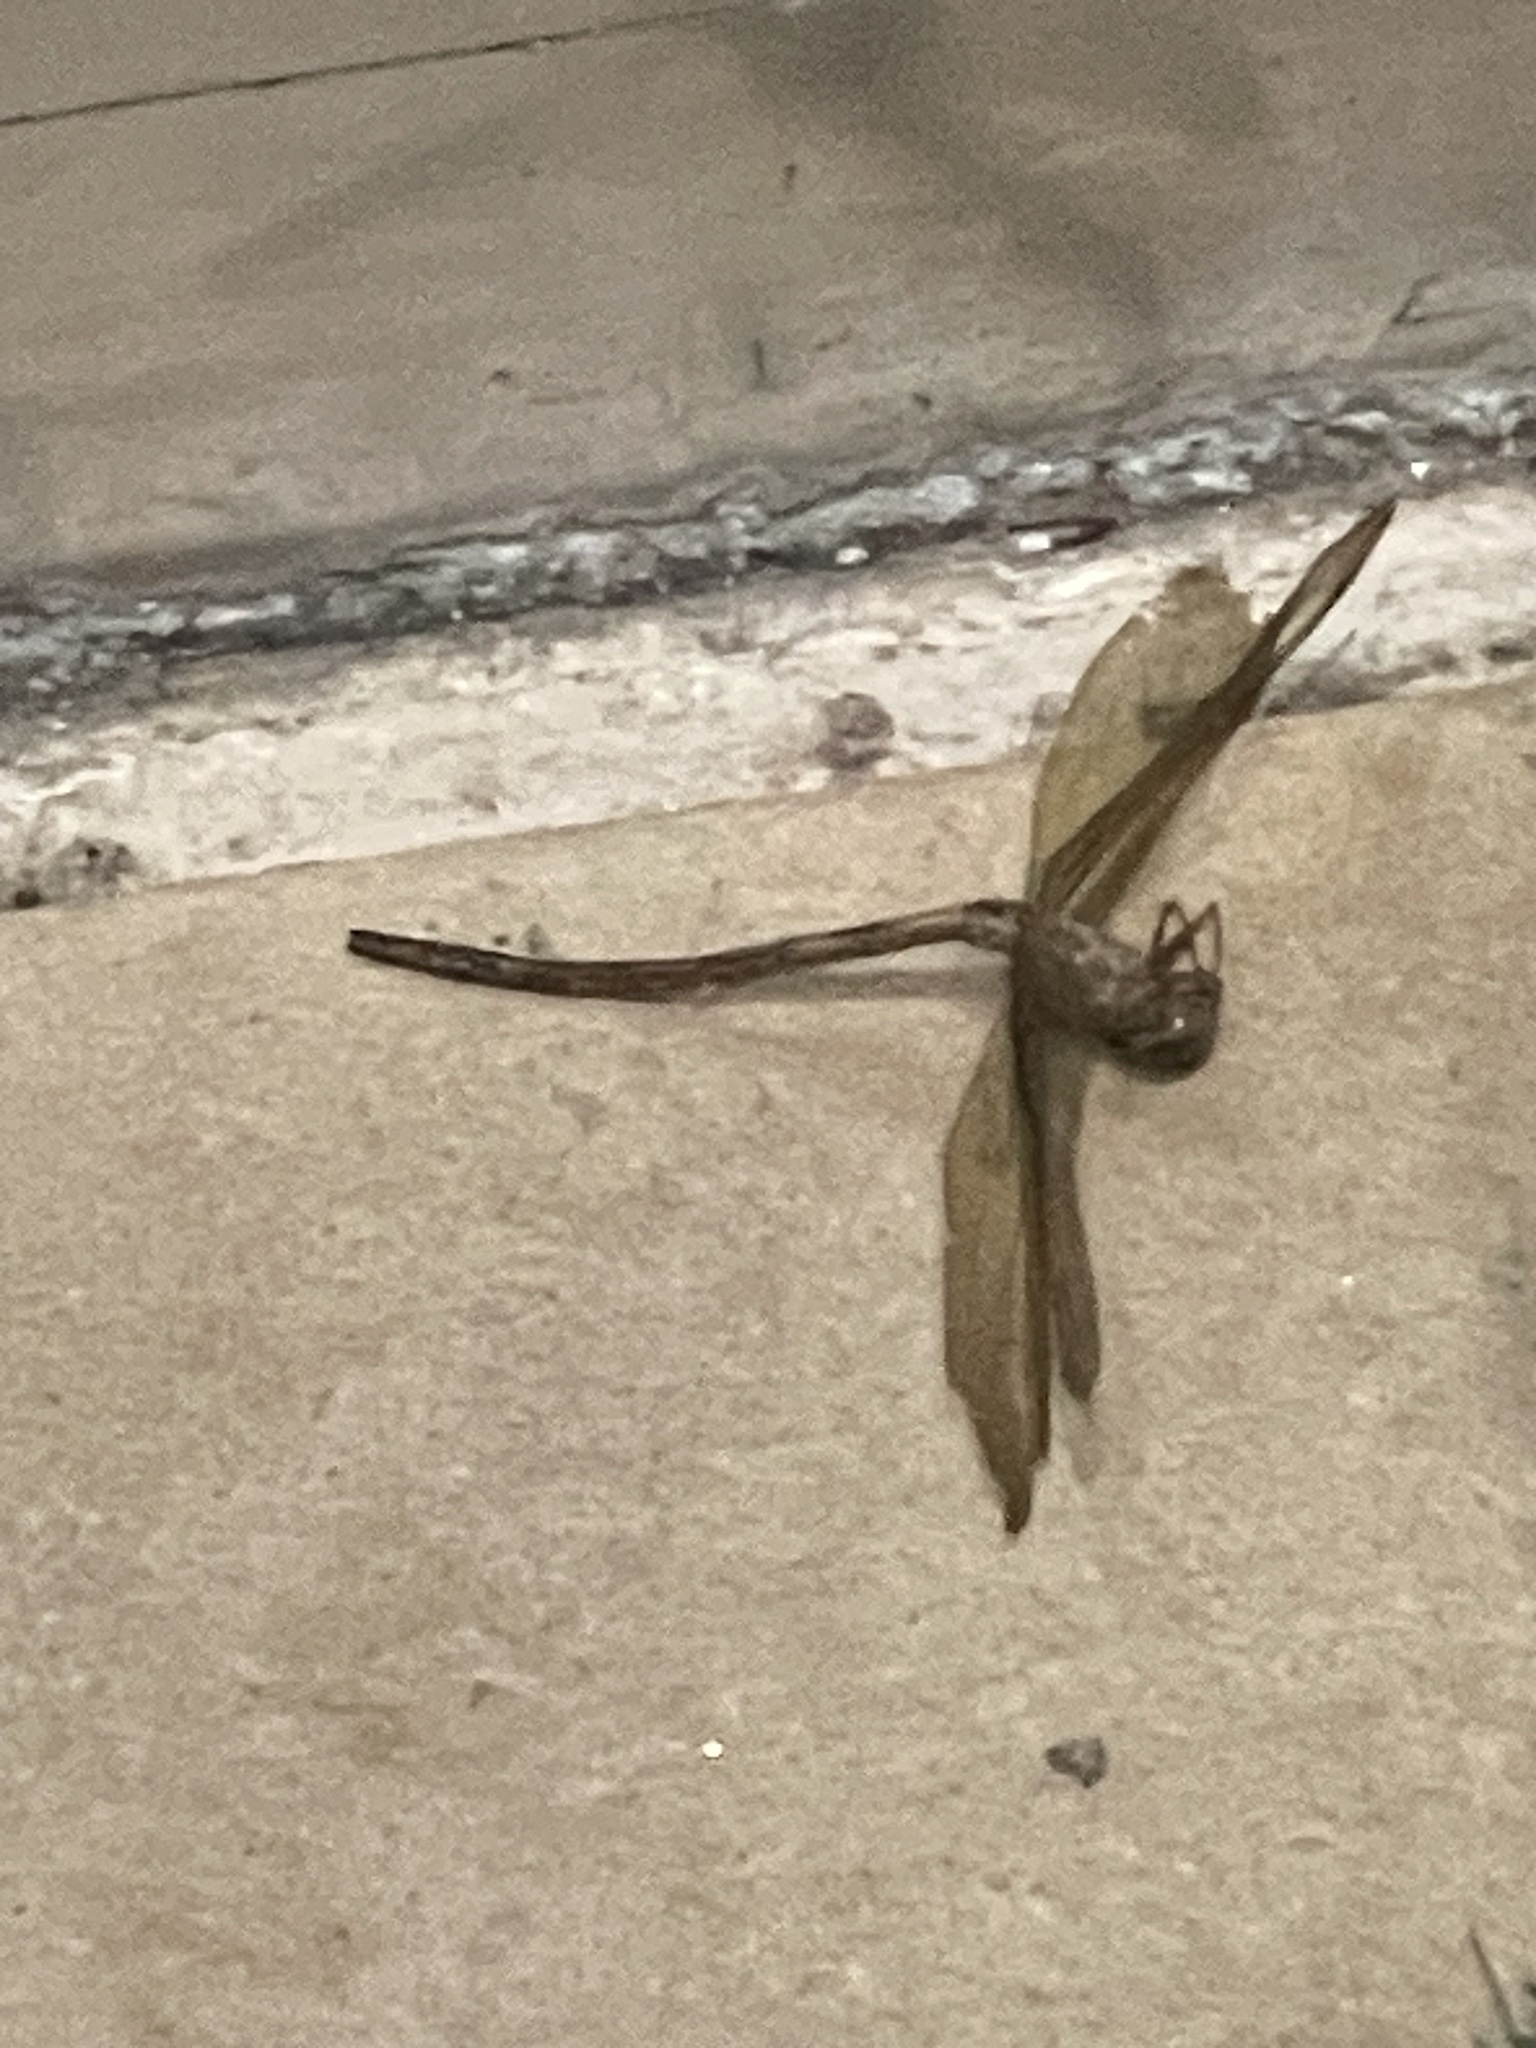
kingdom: Animalia
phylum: Arthropoda
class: Insecta
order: Odonata
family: Aeshnidae
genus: Gynacantha
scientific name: Gynacantha nervosa
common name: Twilight darner
